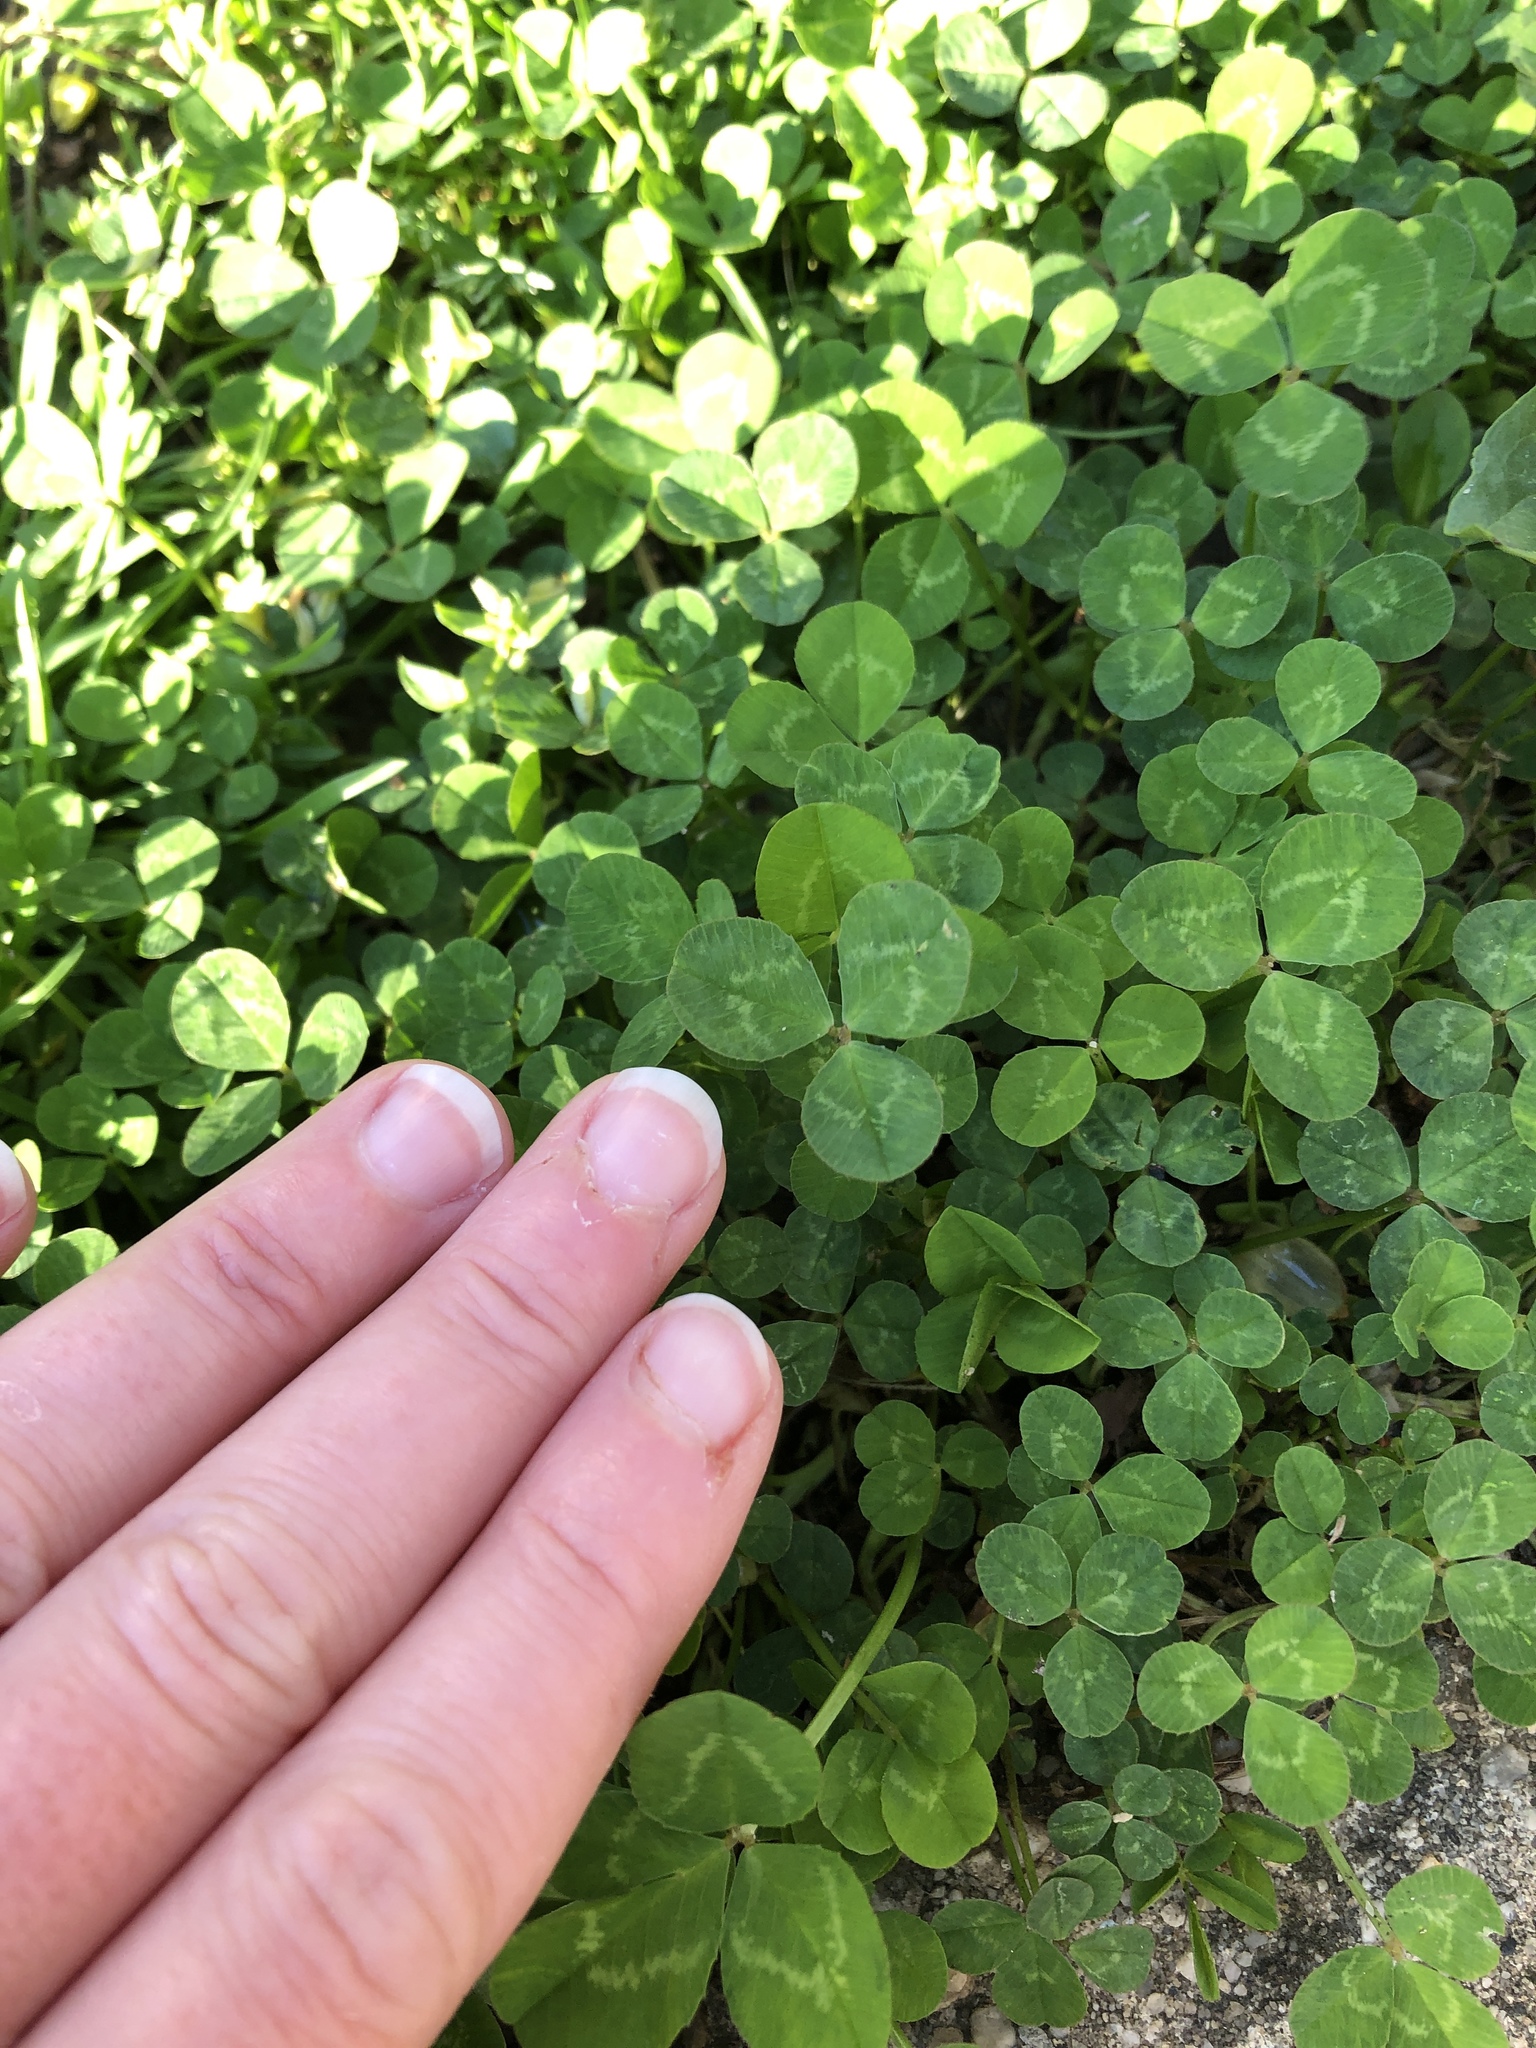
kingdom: Plantae
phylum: Tracheophyta
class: Magnoliopsida
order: Fabales
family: Fabaceae
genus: Trifolium
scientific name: Trifolium repens
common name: White clover
